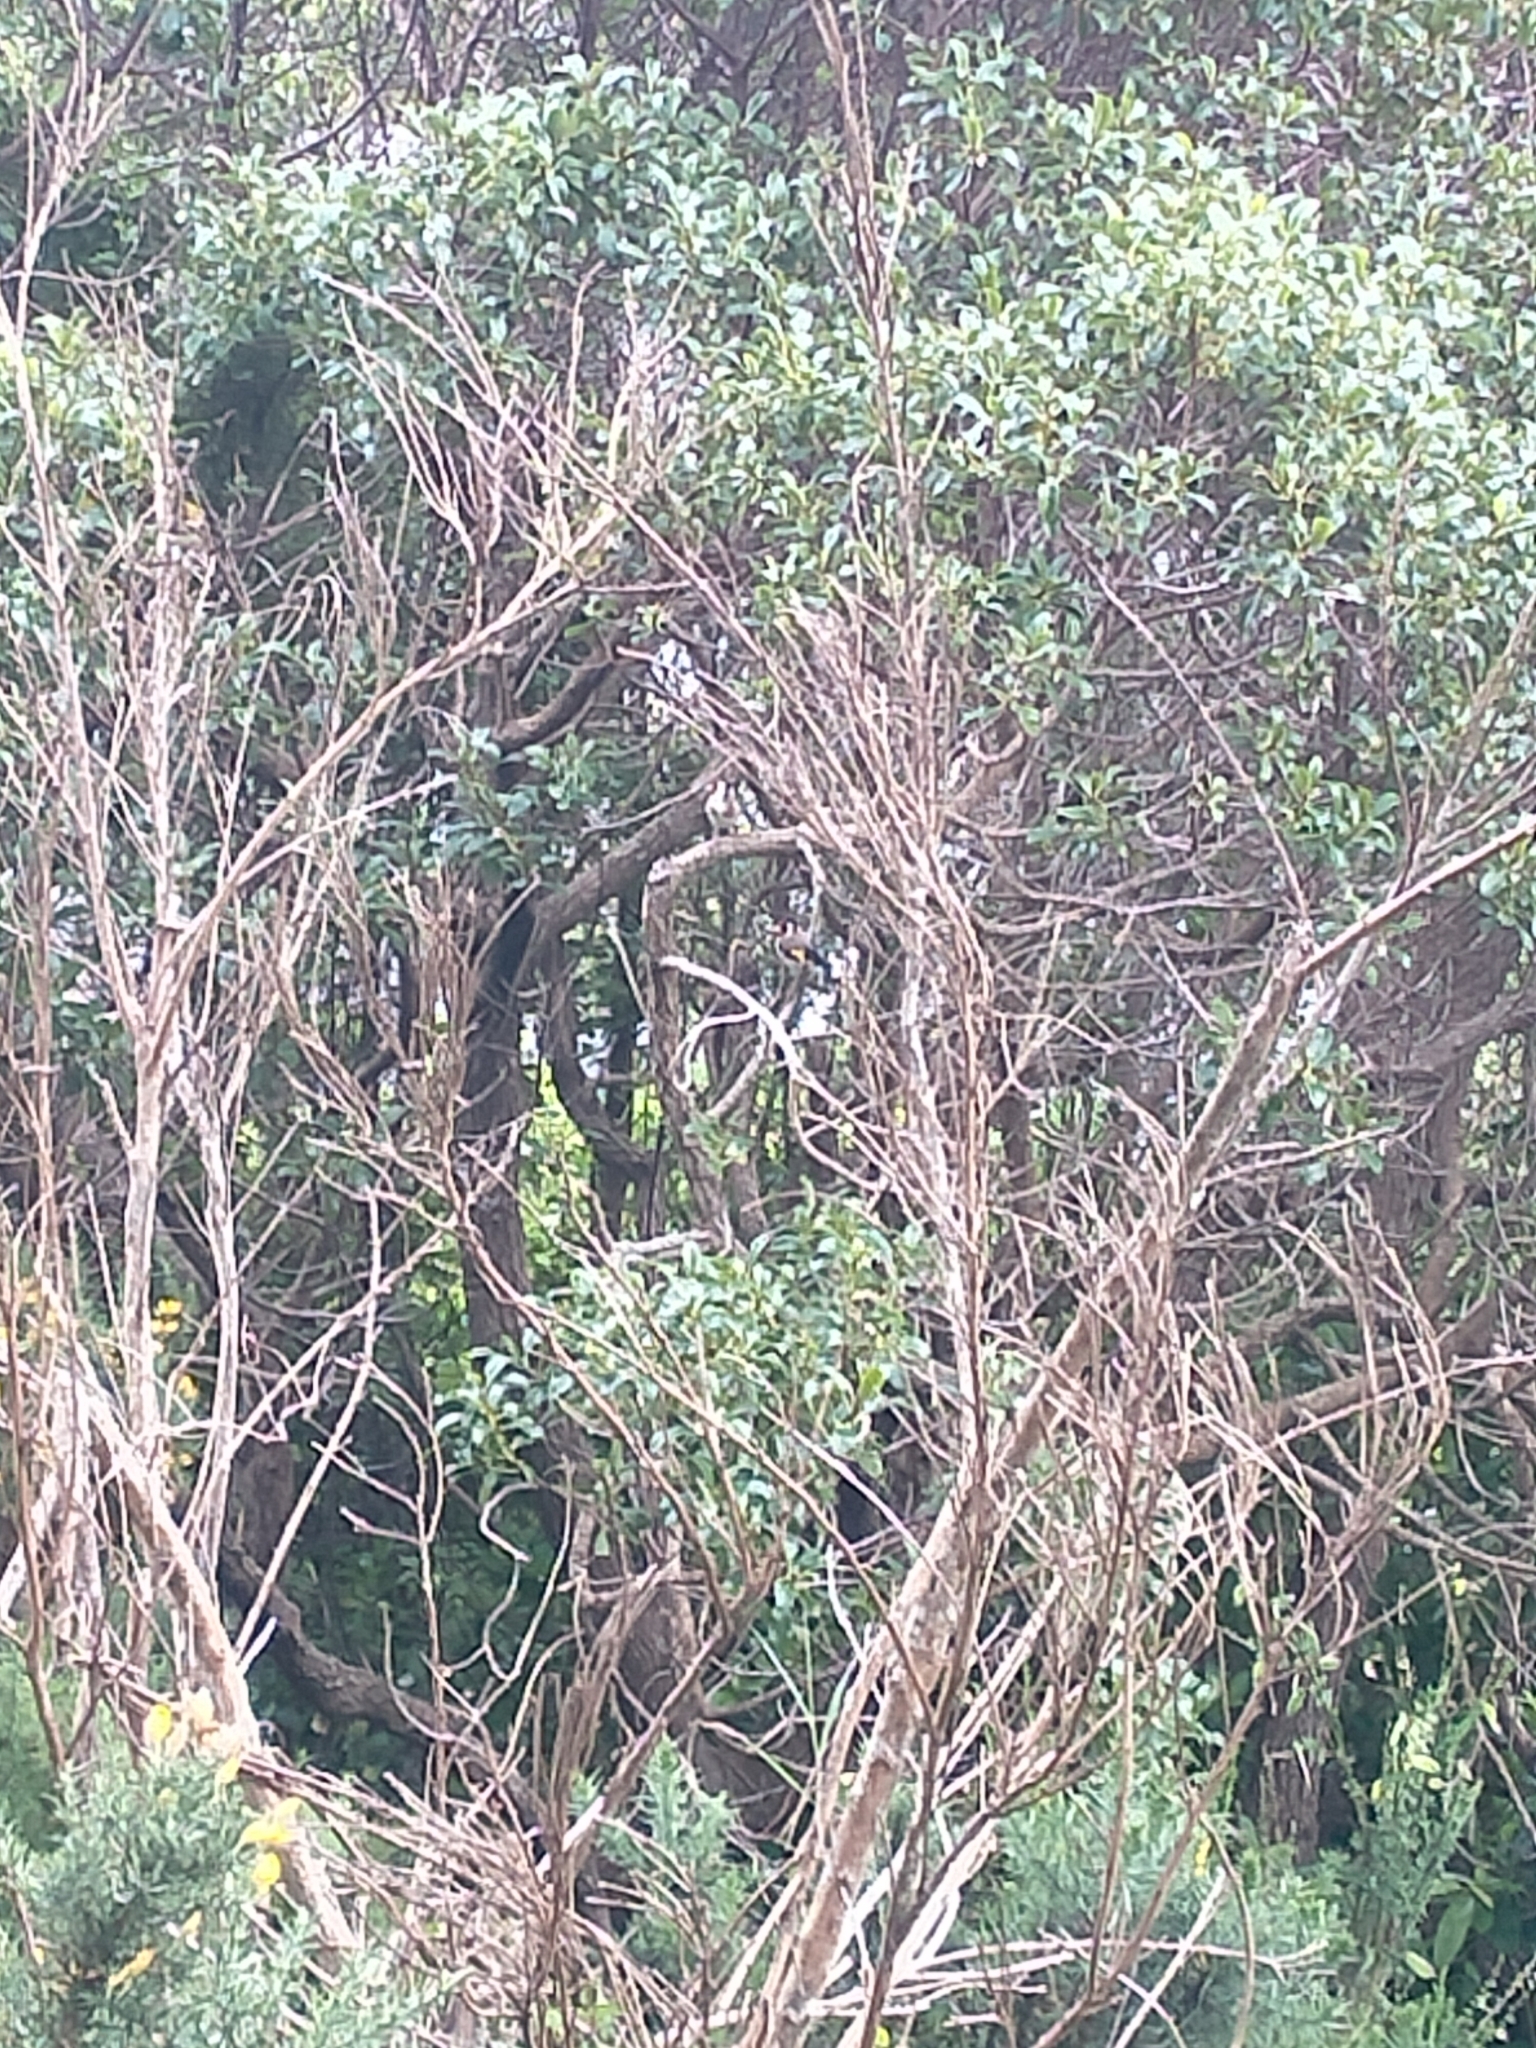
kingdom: Animalia
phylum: Chordata
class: Aves
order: Passeriformes
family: Fringillidae
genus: Carduelis
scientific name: Carduelis carduelis
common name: European goldfinch
